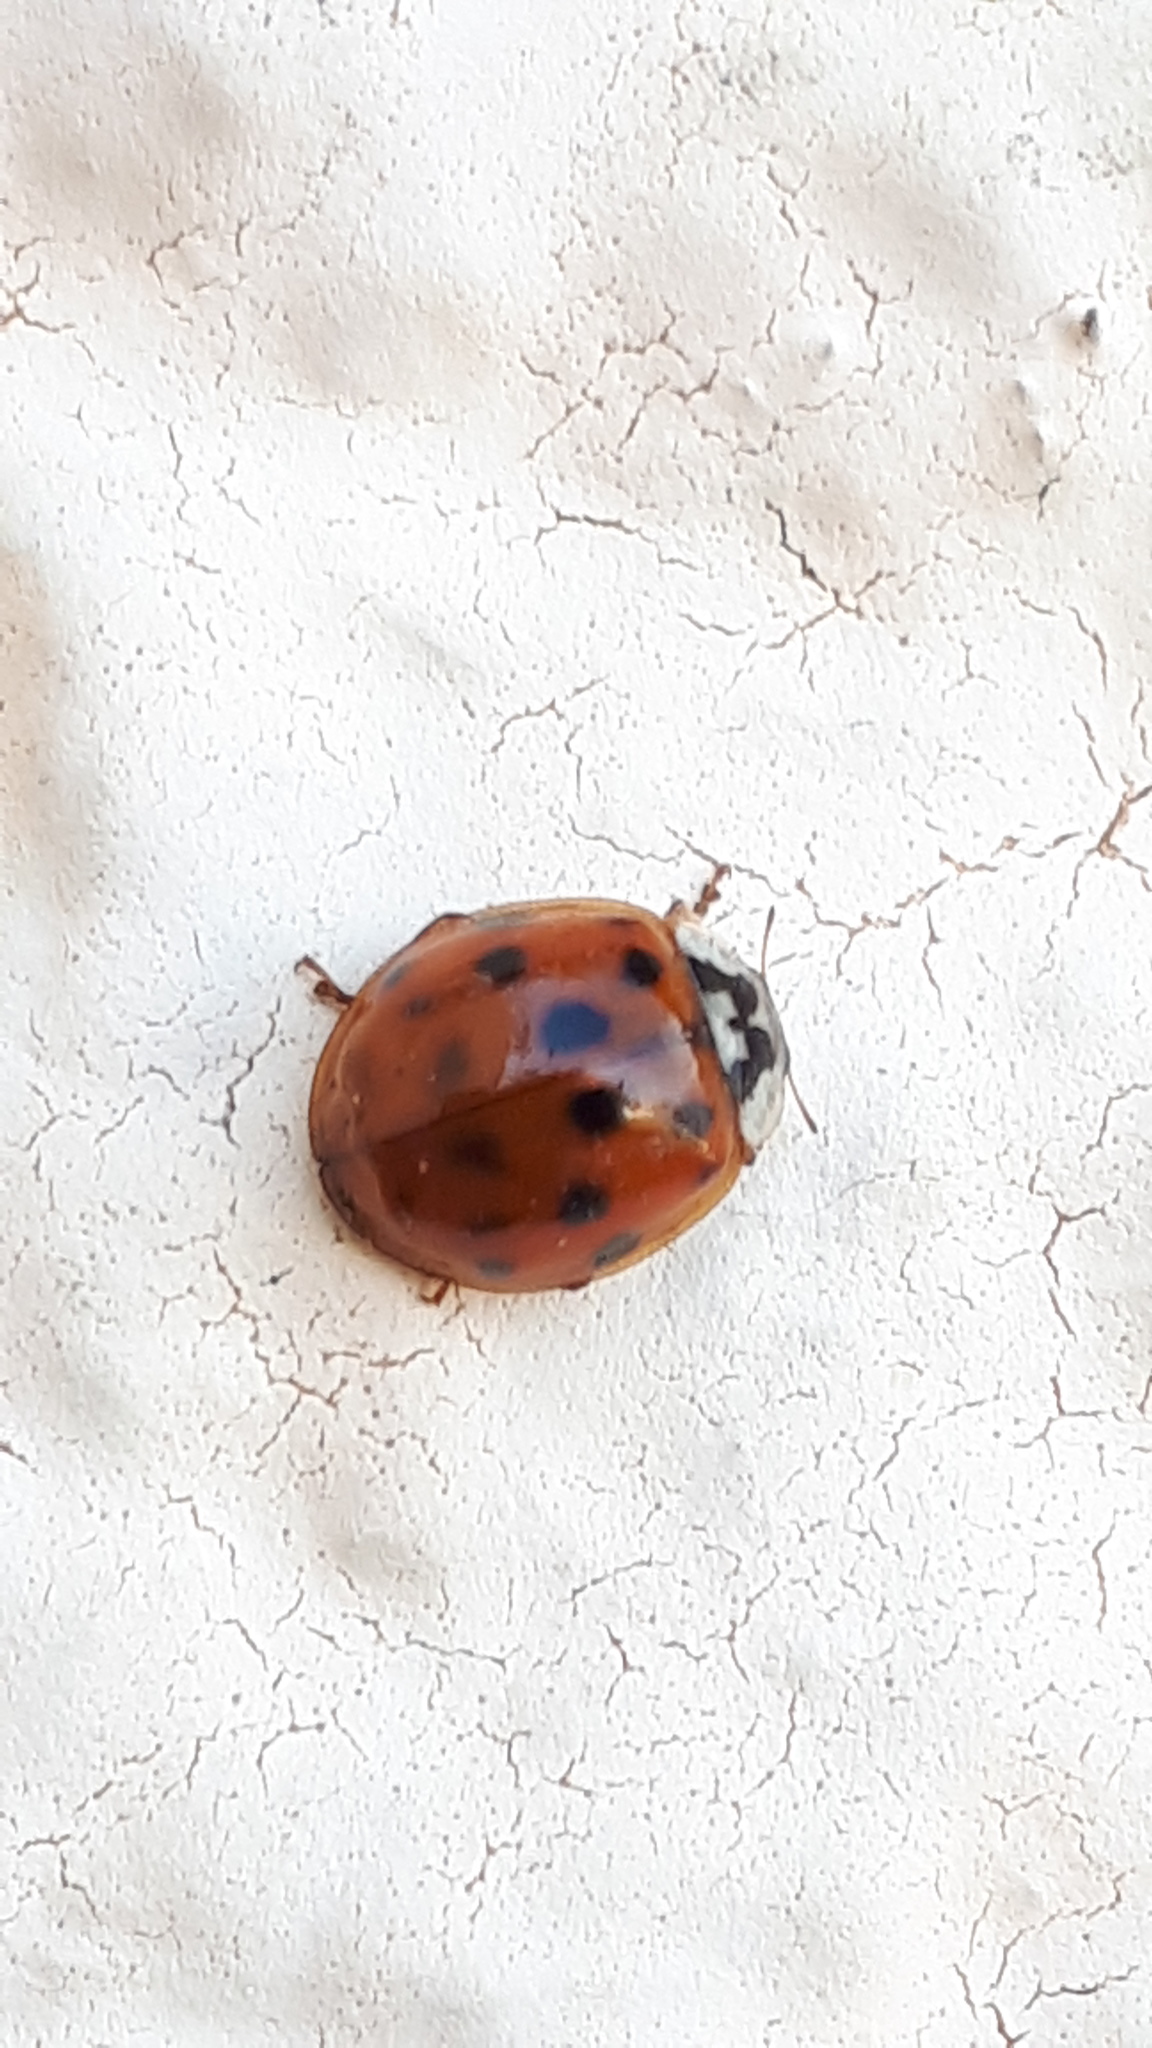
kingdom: Animalia
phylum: Arthropoda
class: Insecta
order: Coleoptera
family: Coccinellidae
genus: Harmonia
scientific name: Harmonia axyridis
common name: Harlequin ladybird
